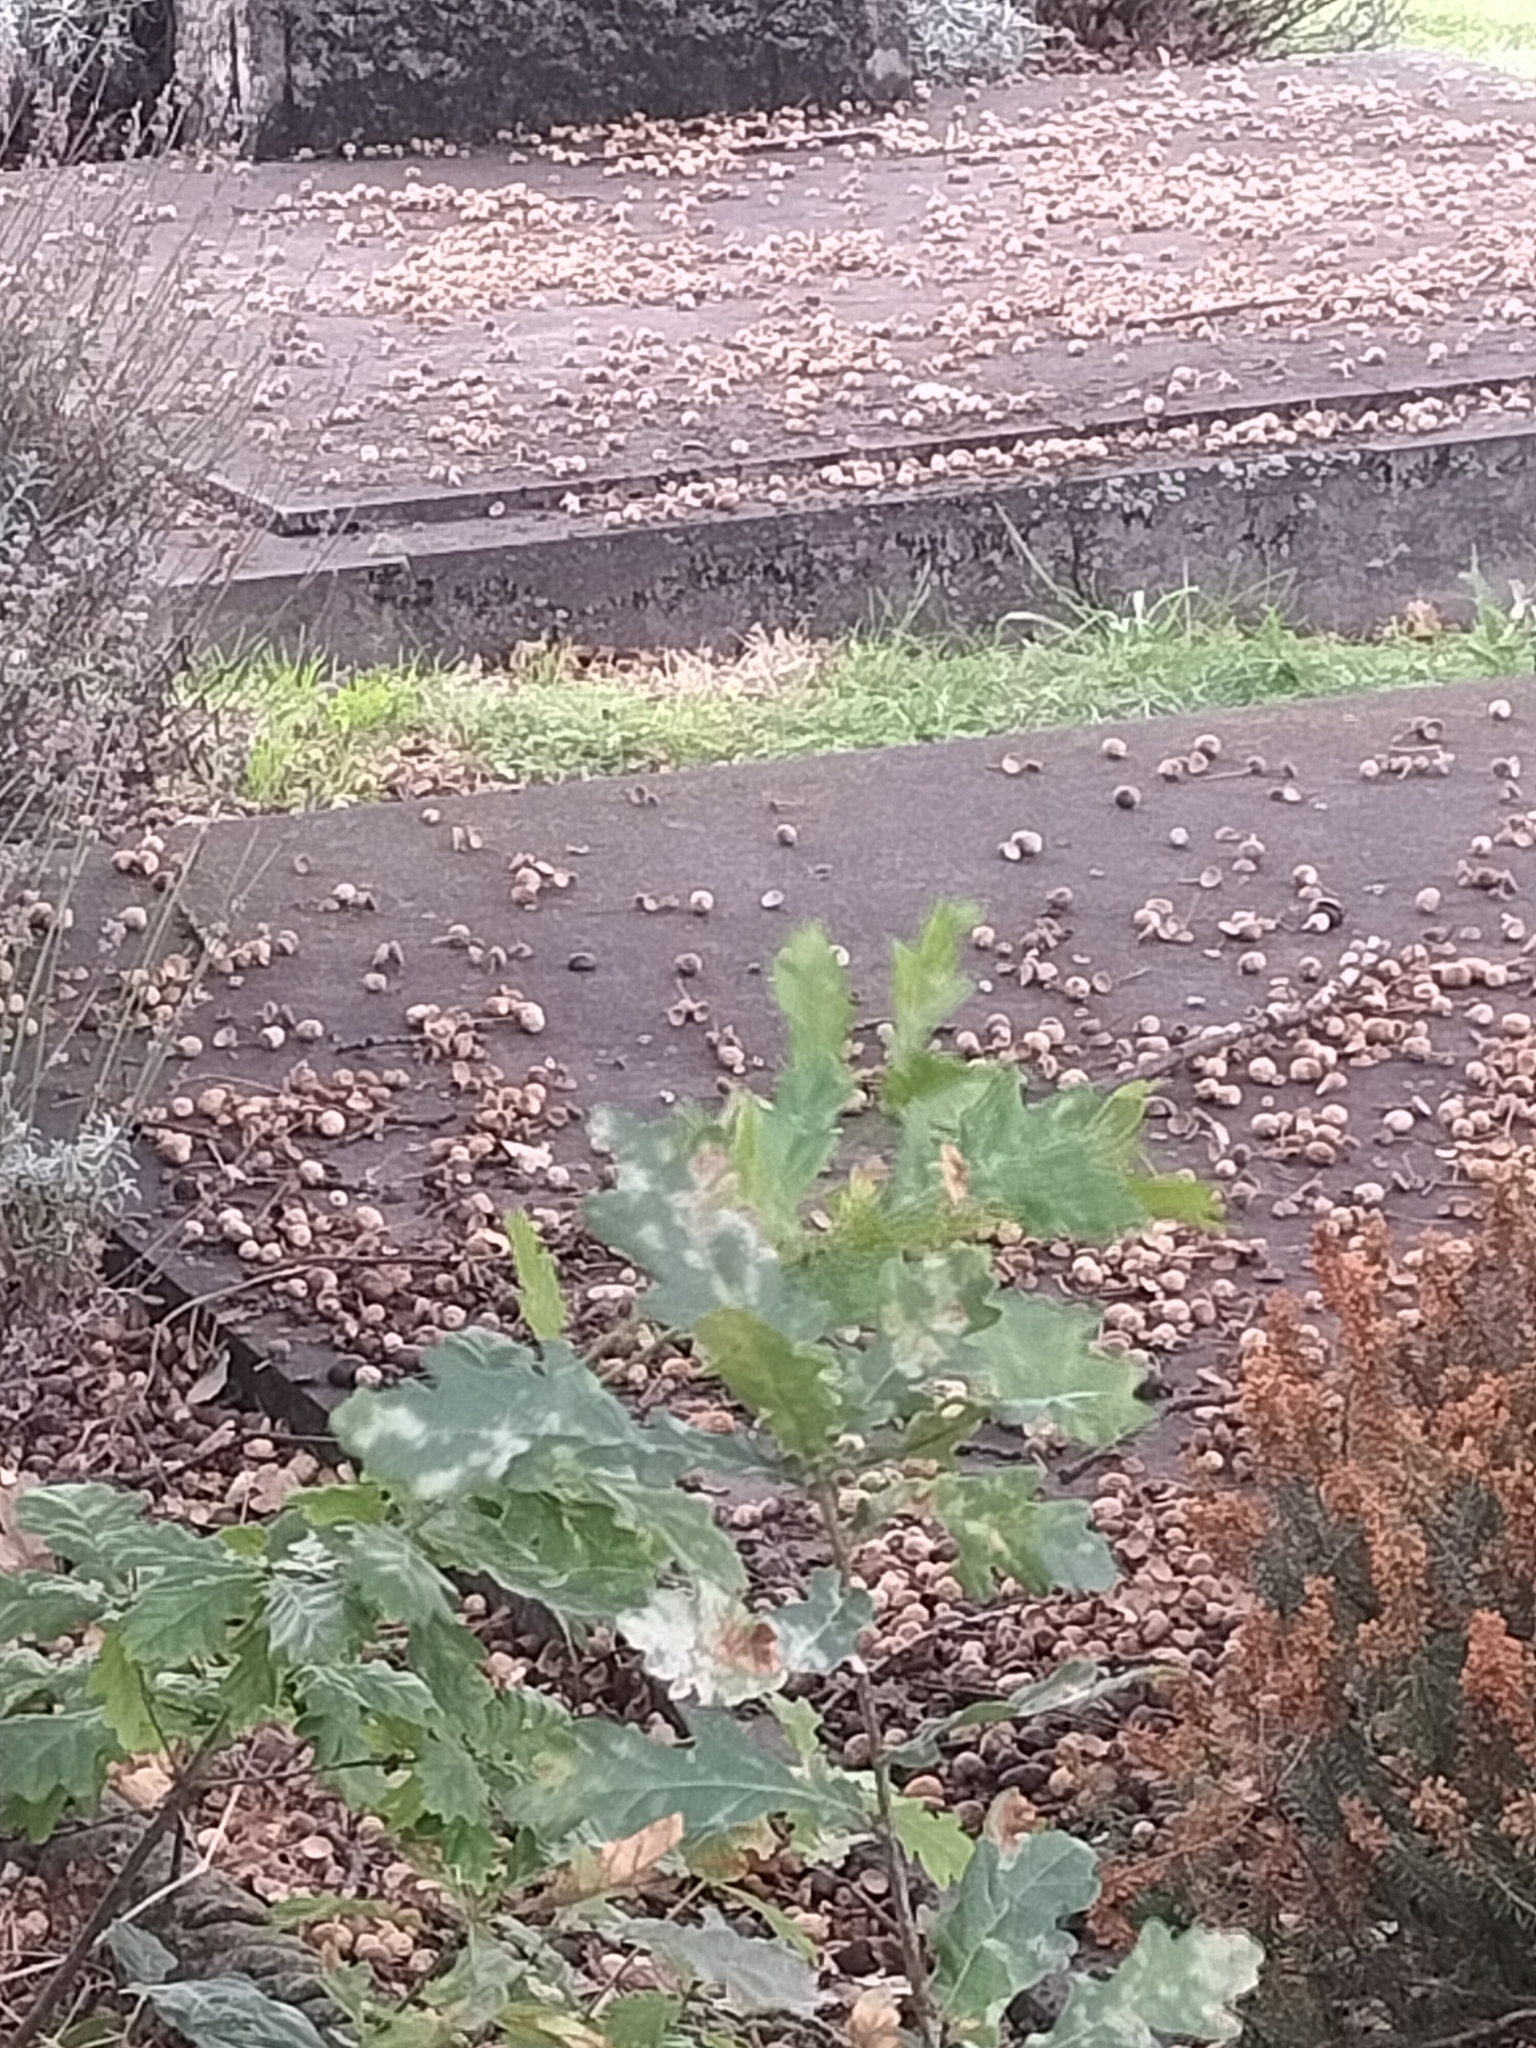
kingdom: Plantae
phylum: Tracheophyta
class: Magnoliopsida
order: Fagales
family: Fagaceae
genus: Quercus
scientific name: Quercus robur
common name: Pedunculate oak
